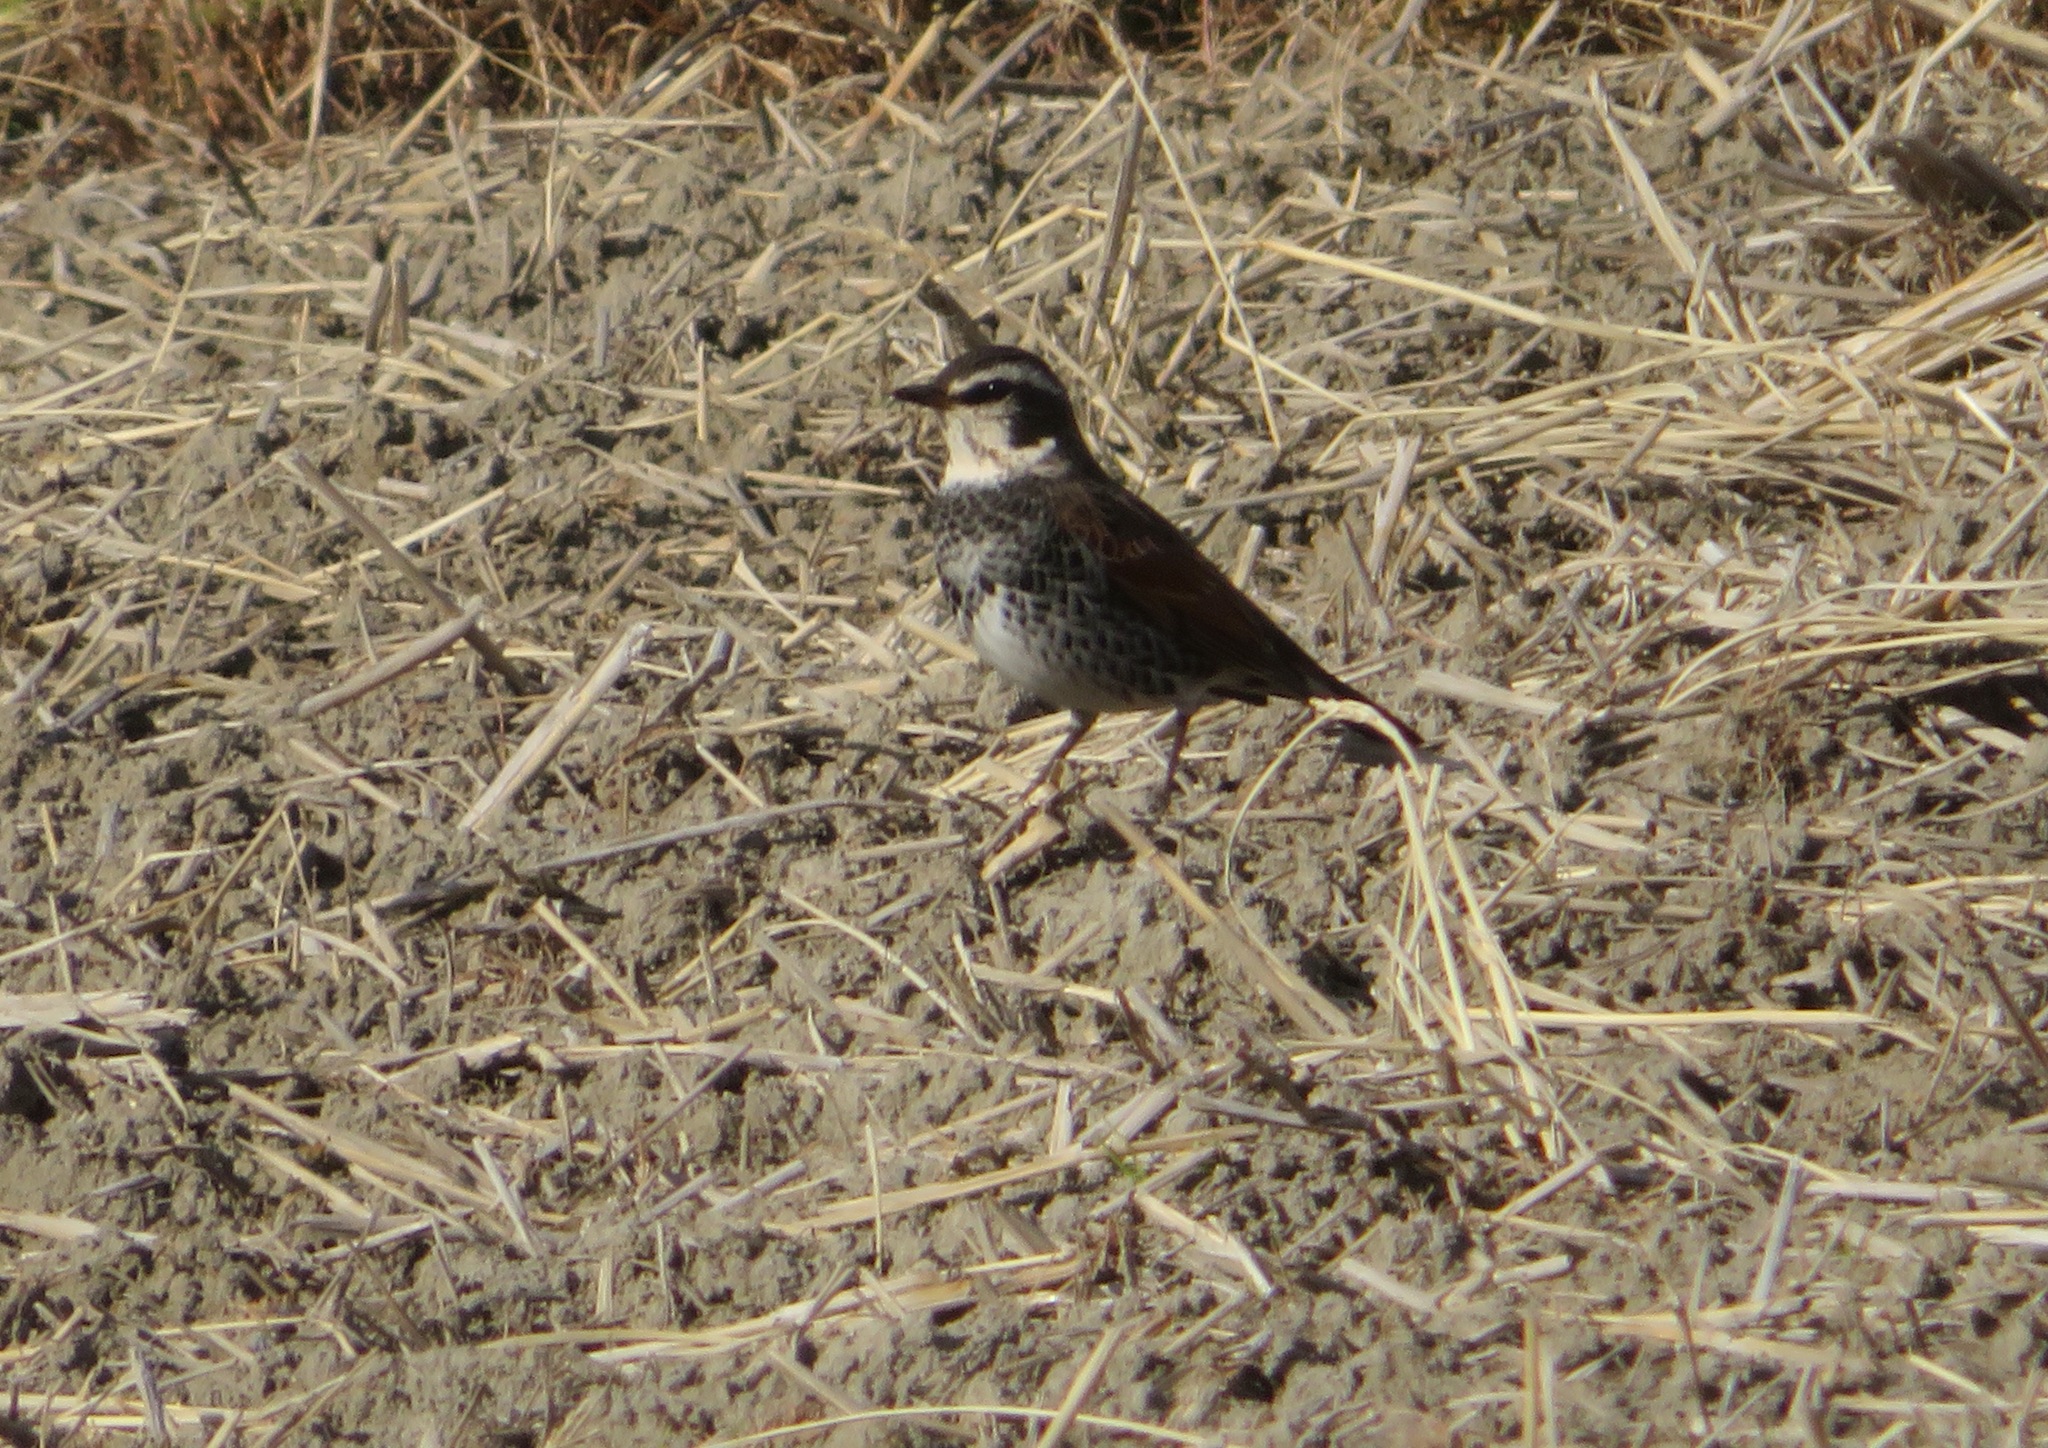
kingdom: Animalia
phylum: Chordata
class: Aves
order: Passeriformes
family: Turdidae
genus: Turdus
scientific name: Turdus eunomus
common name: Dusky thrush
